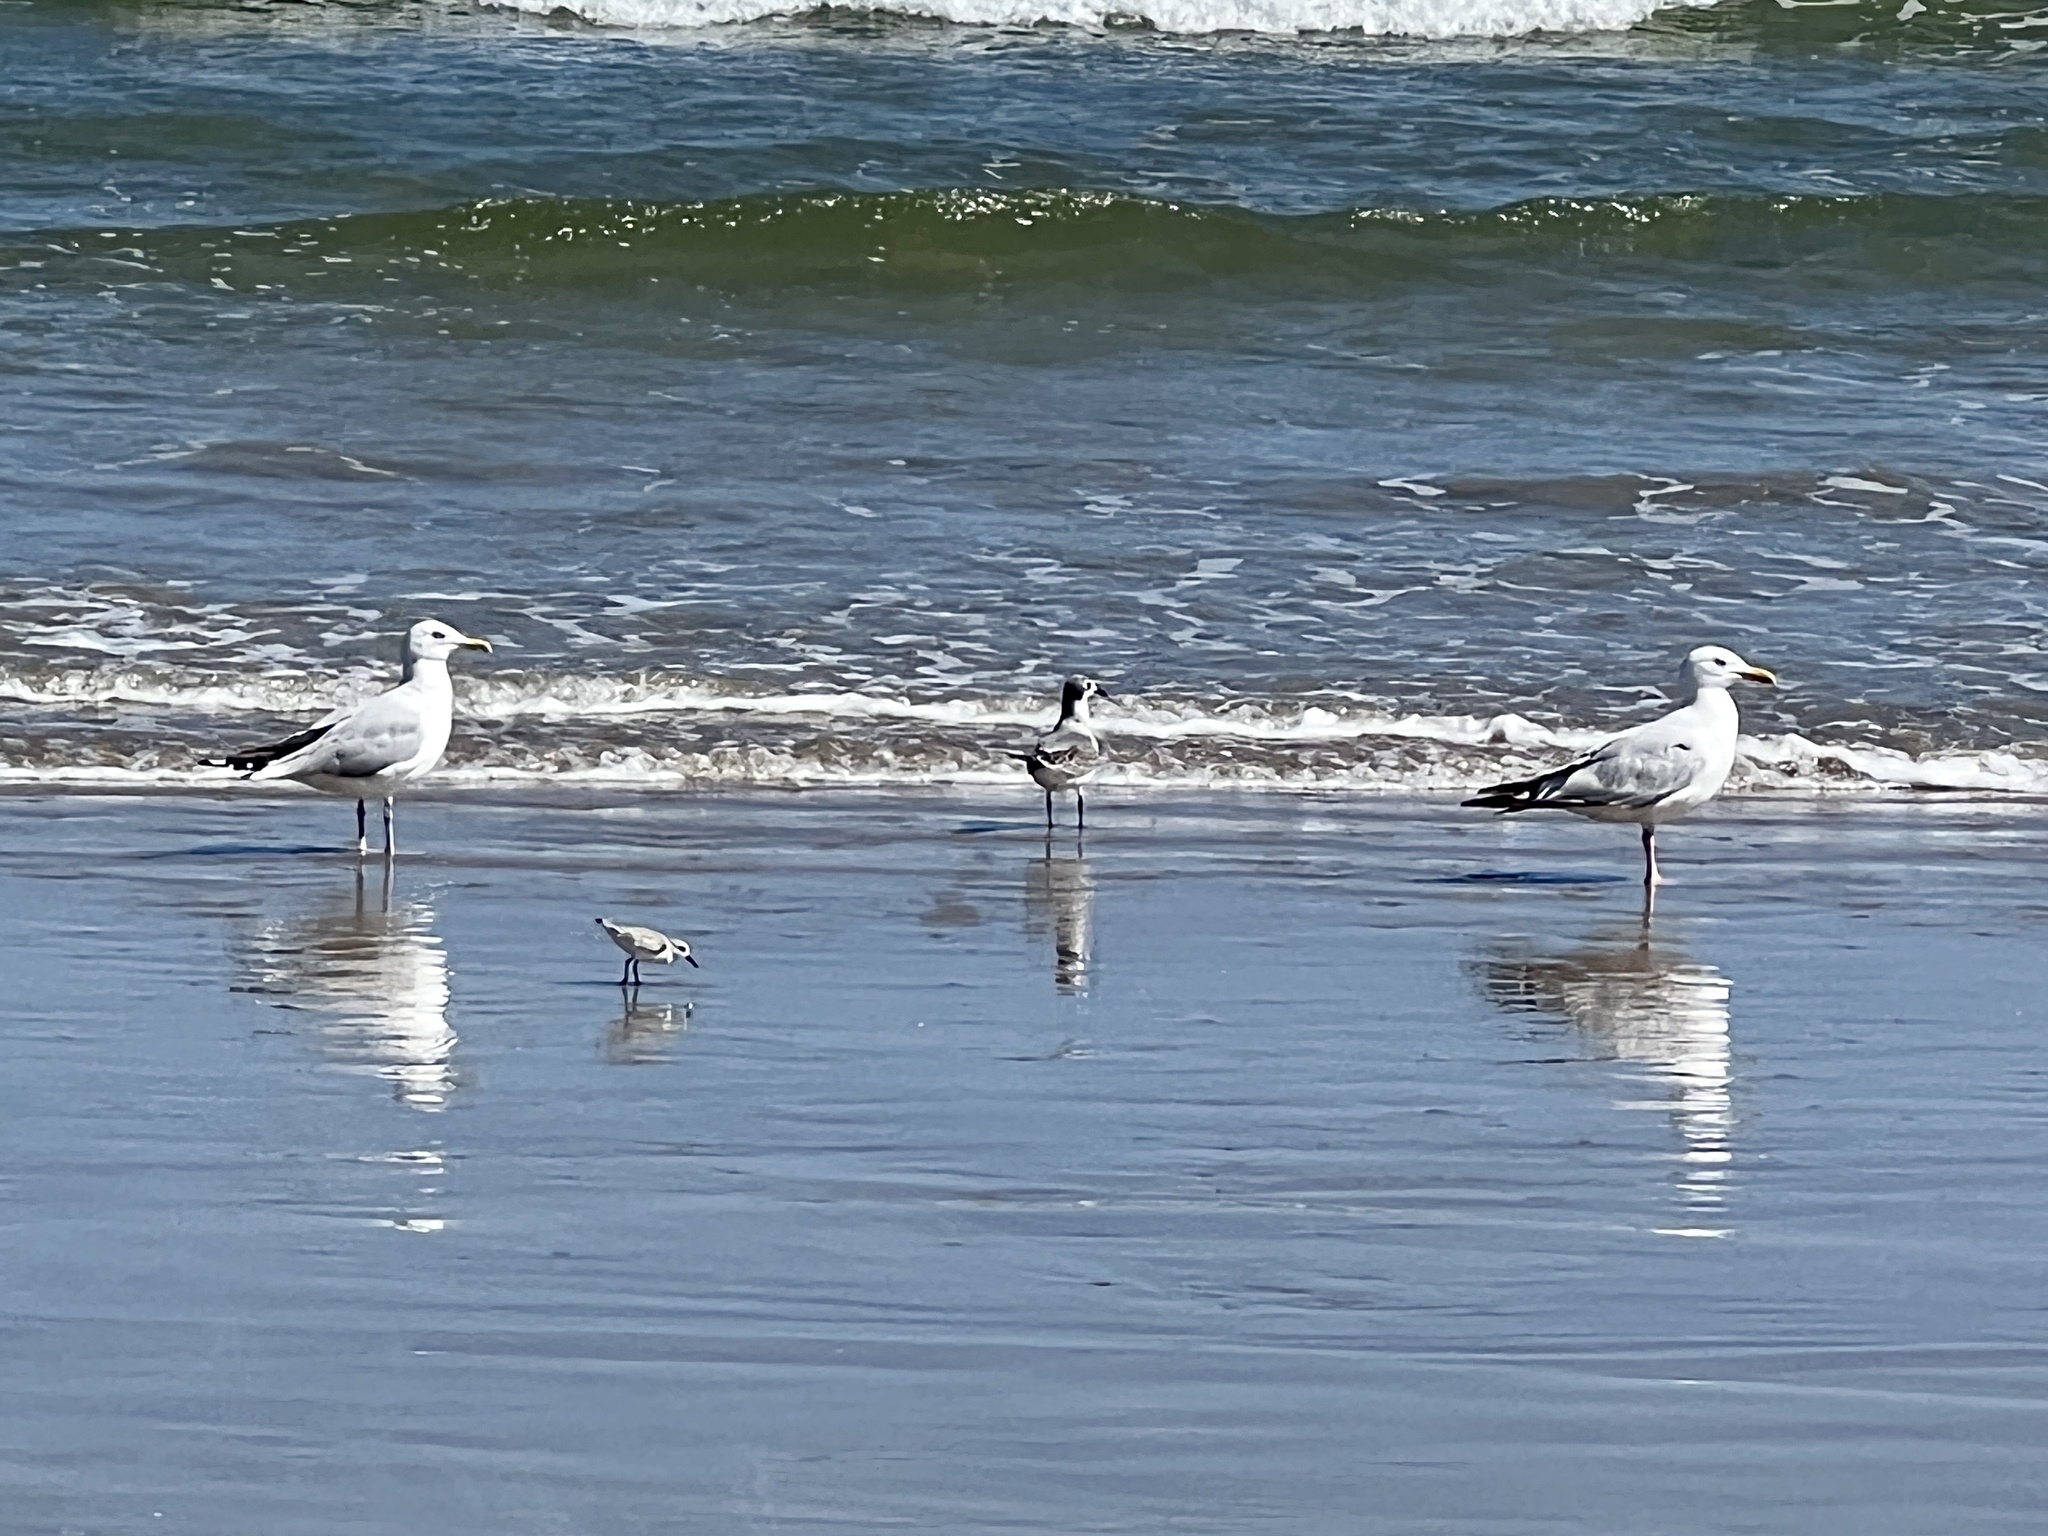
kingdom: Animalia
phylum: Chordata
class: Aves
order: Charadriiformes
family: Laridae
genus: Larus
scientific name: Larus argentatus
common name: Herring gull
